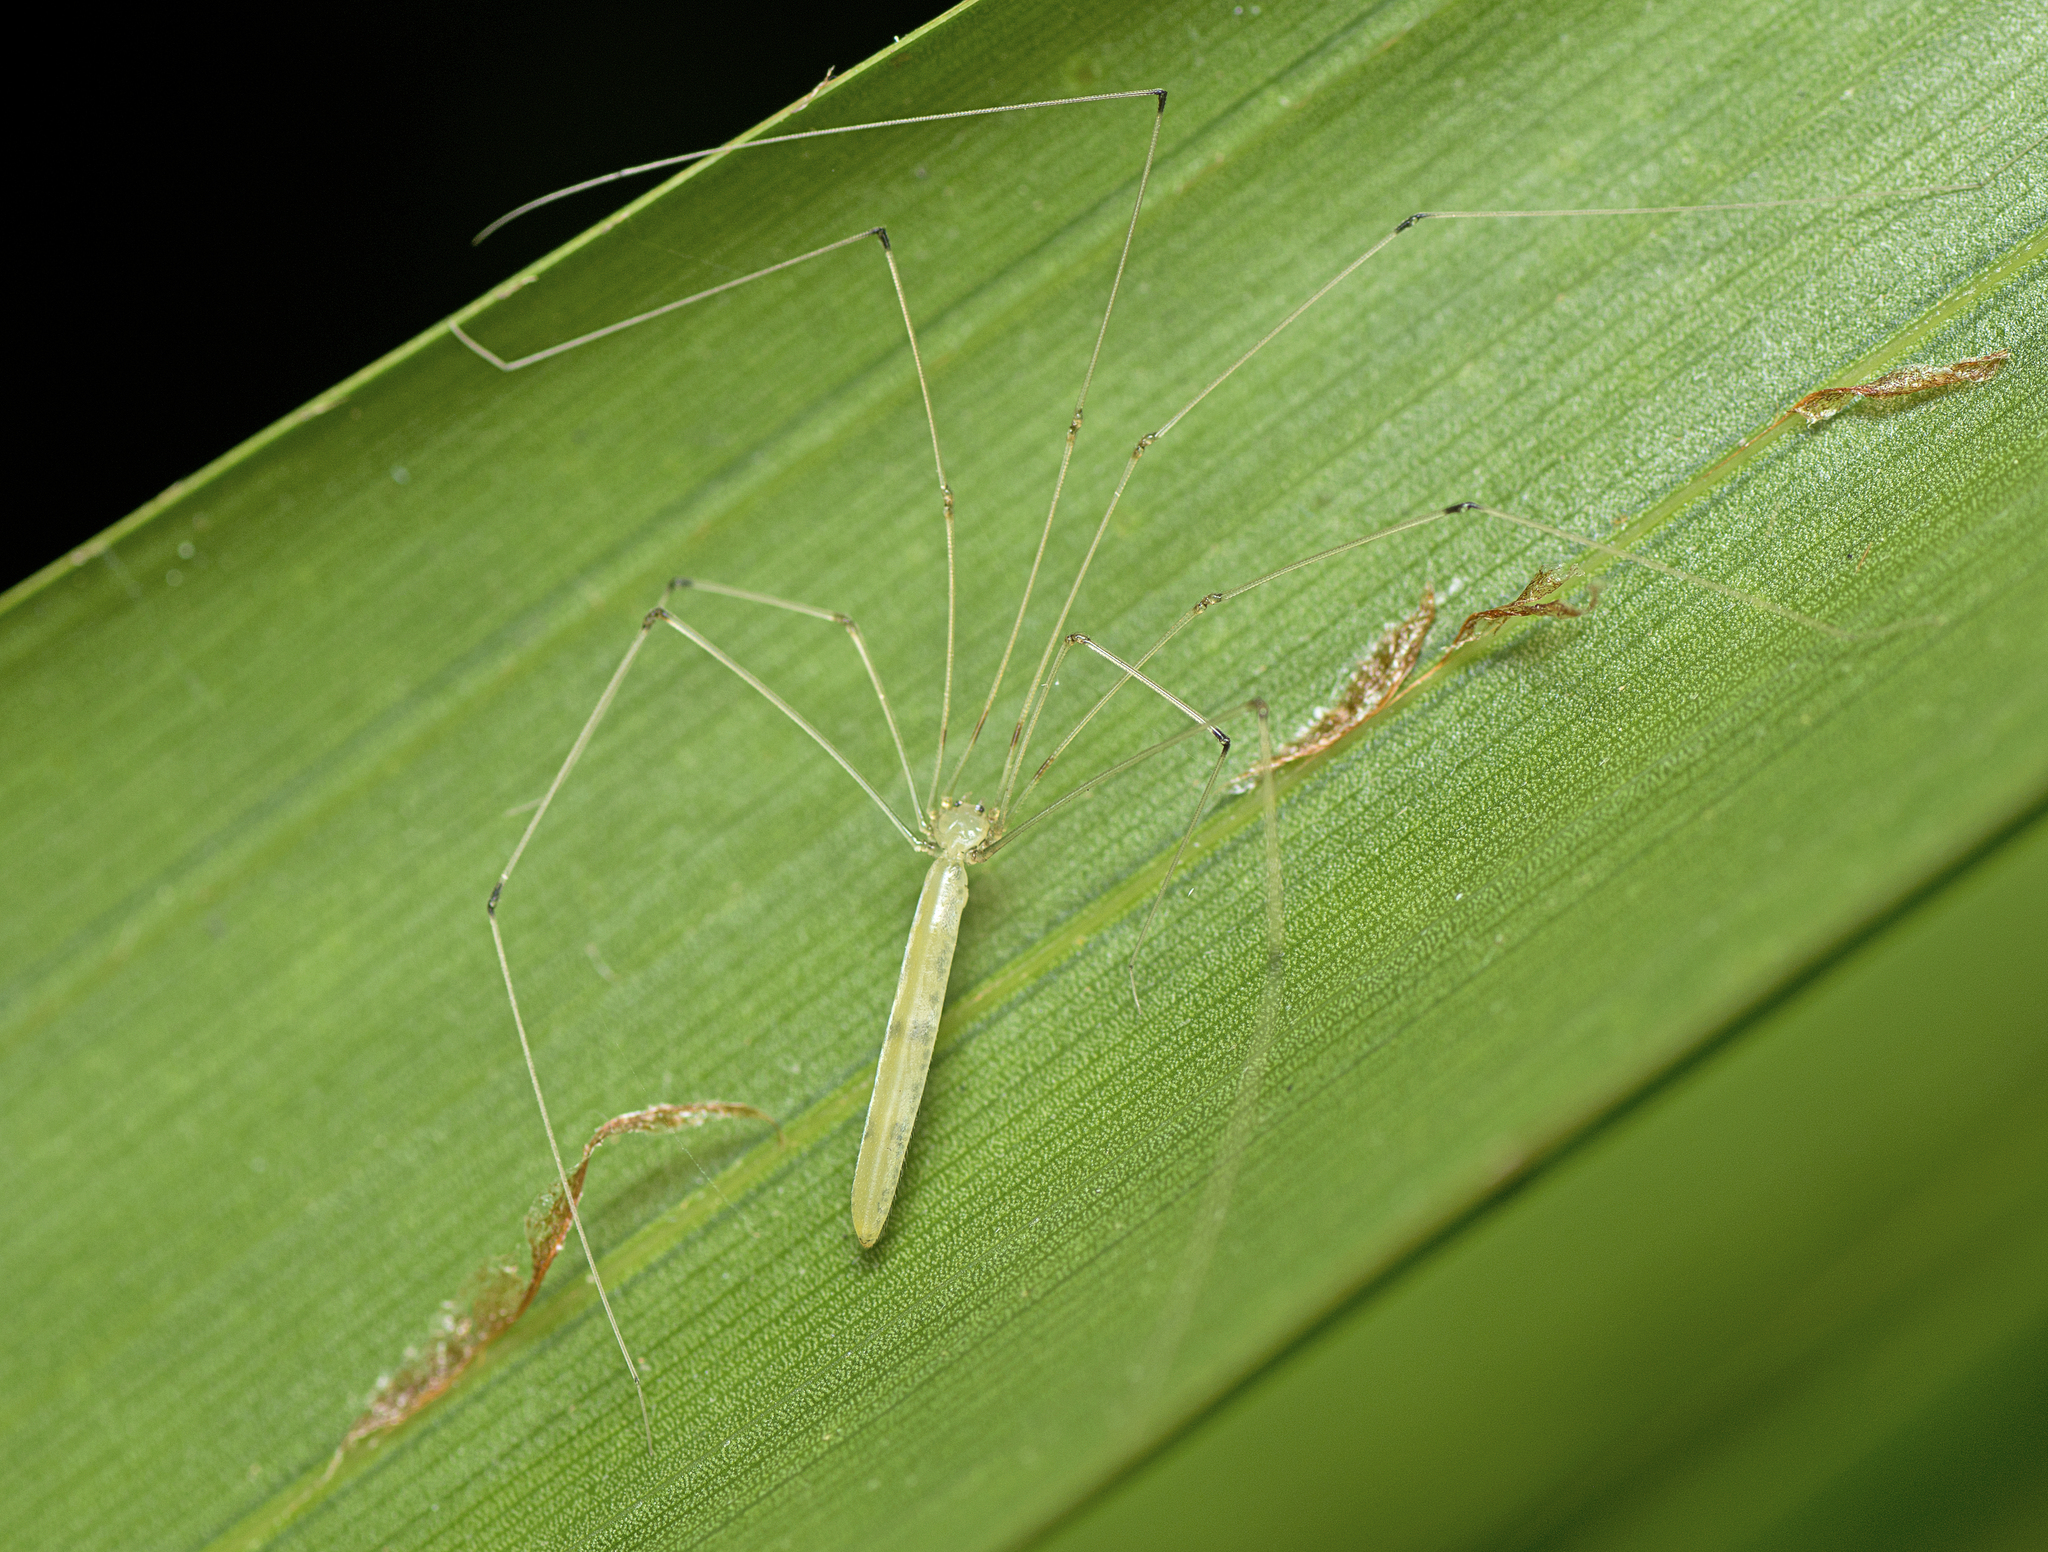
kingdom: Animalia
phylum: Arthropoda
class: Arachnida
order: Araneae
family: Pholcidae
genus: Micromerys
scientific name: Micromerys raveni
